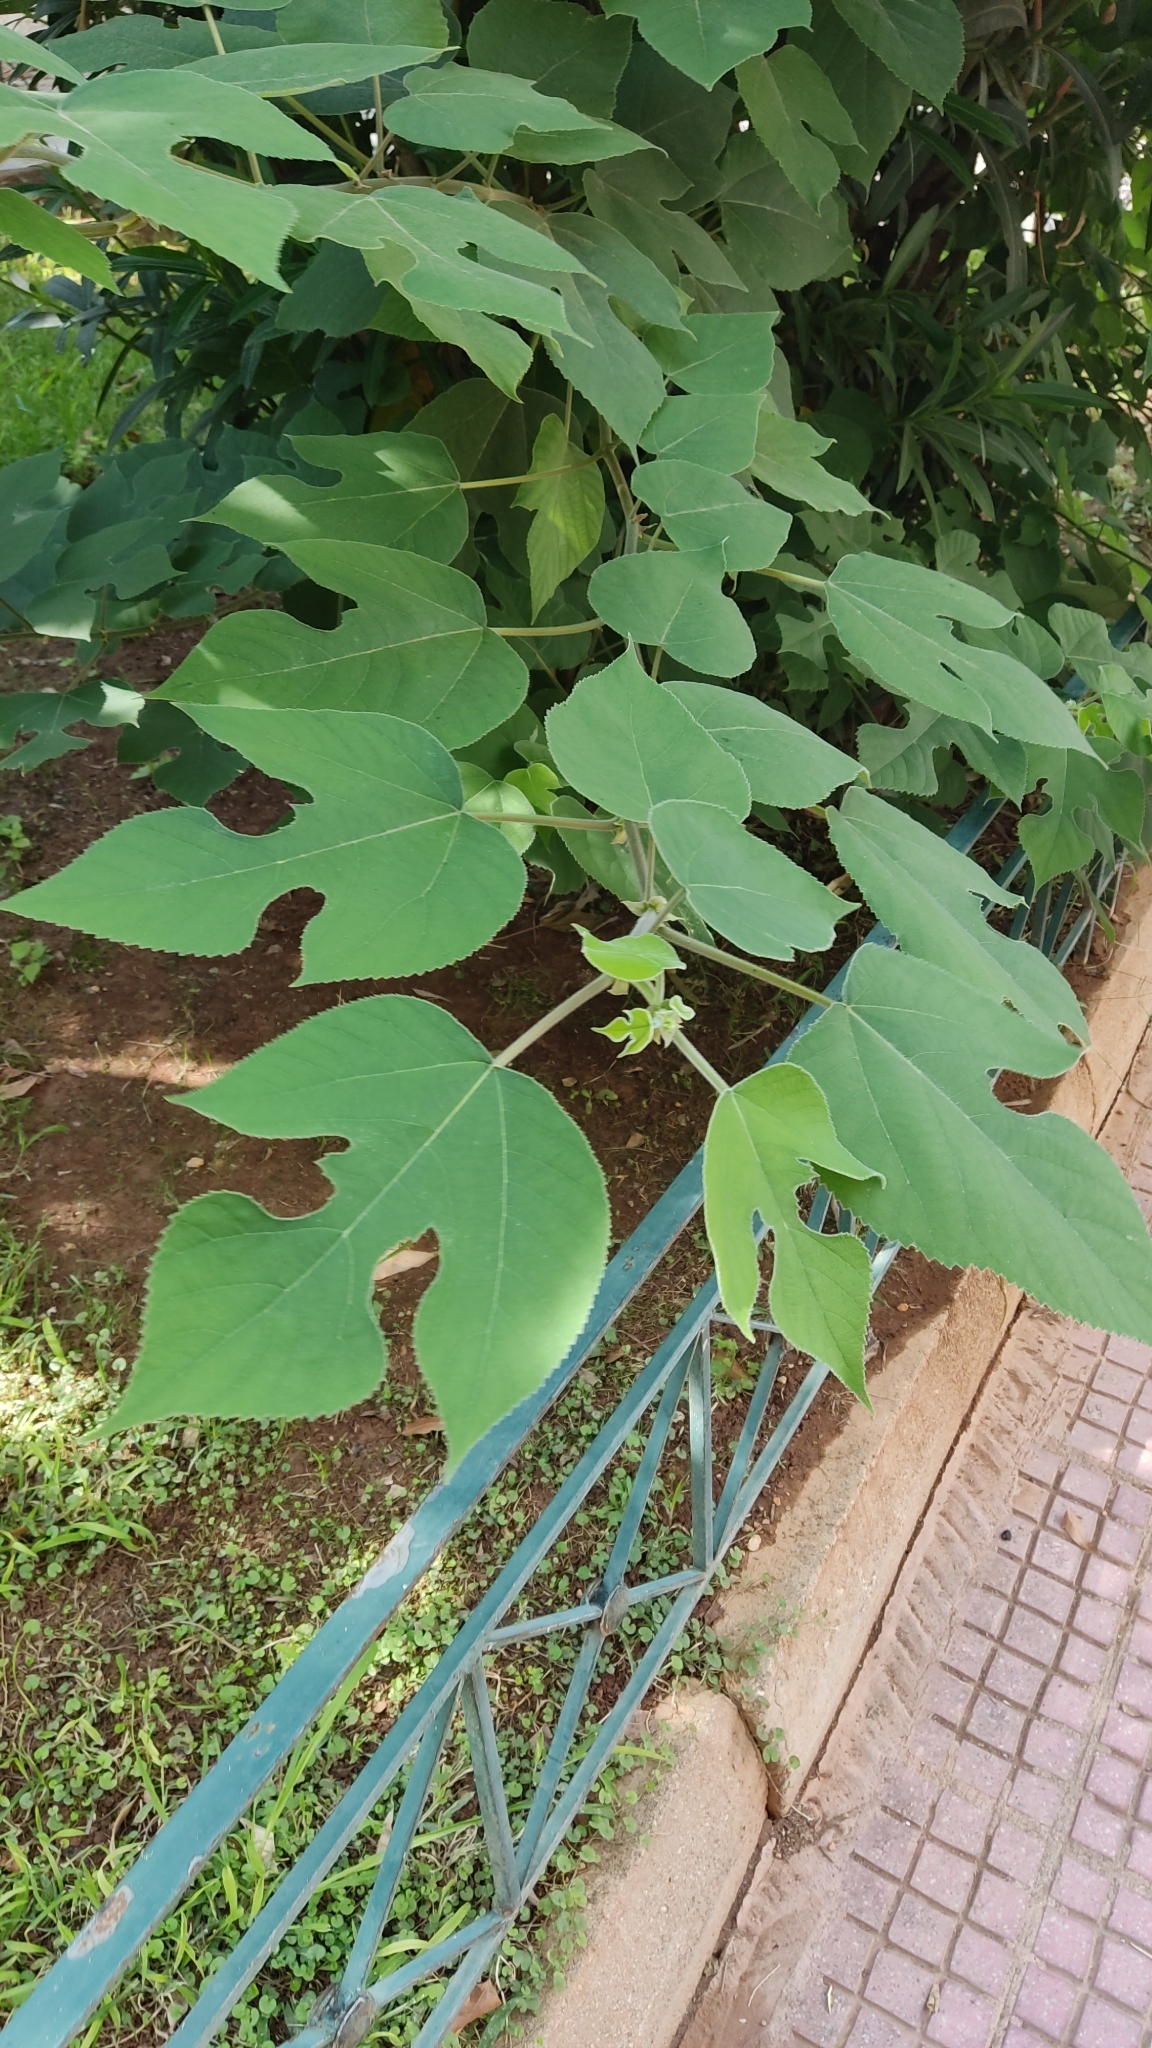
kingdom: Plantae
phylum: Tracheophyta
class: Magnoliopsida
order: Rosales
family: Moraceae
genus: Broussonetia
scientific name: Broussonetia papyrifera
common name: Paper mulberry
